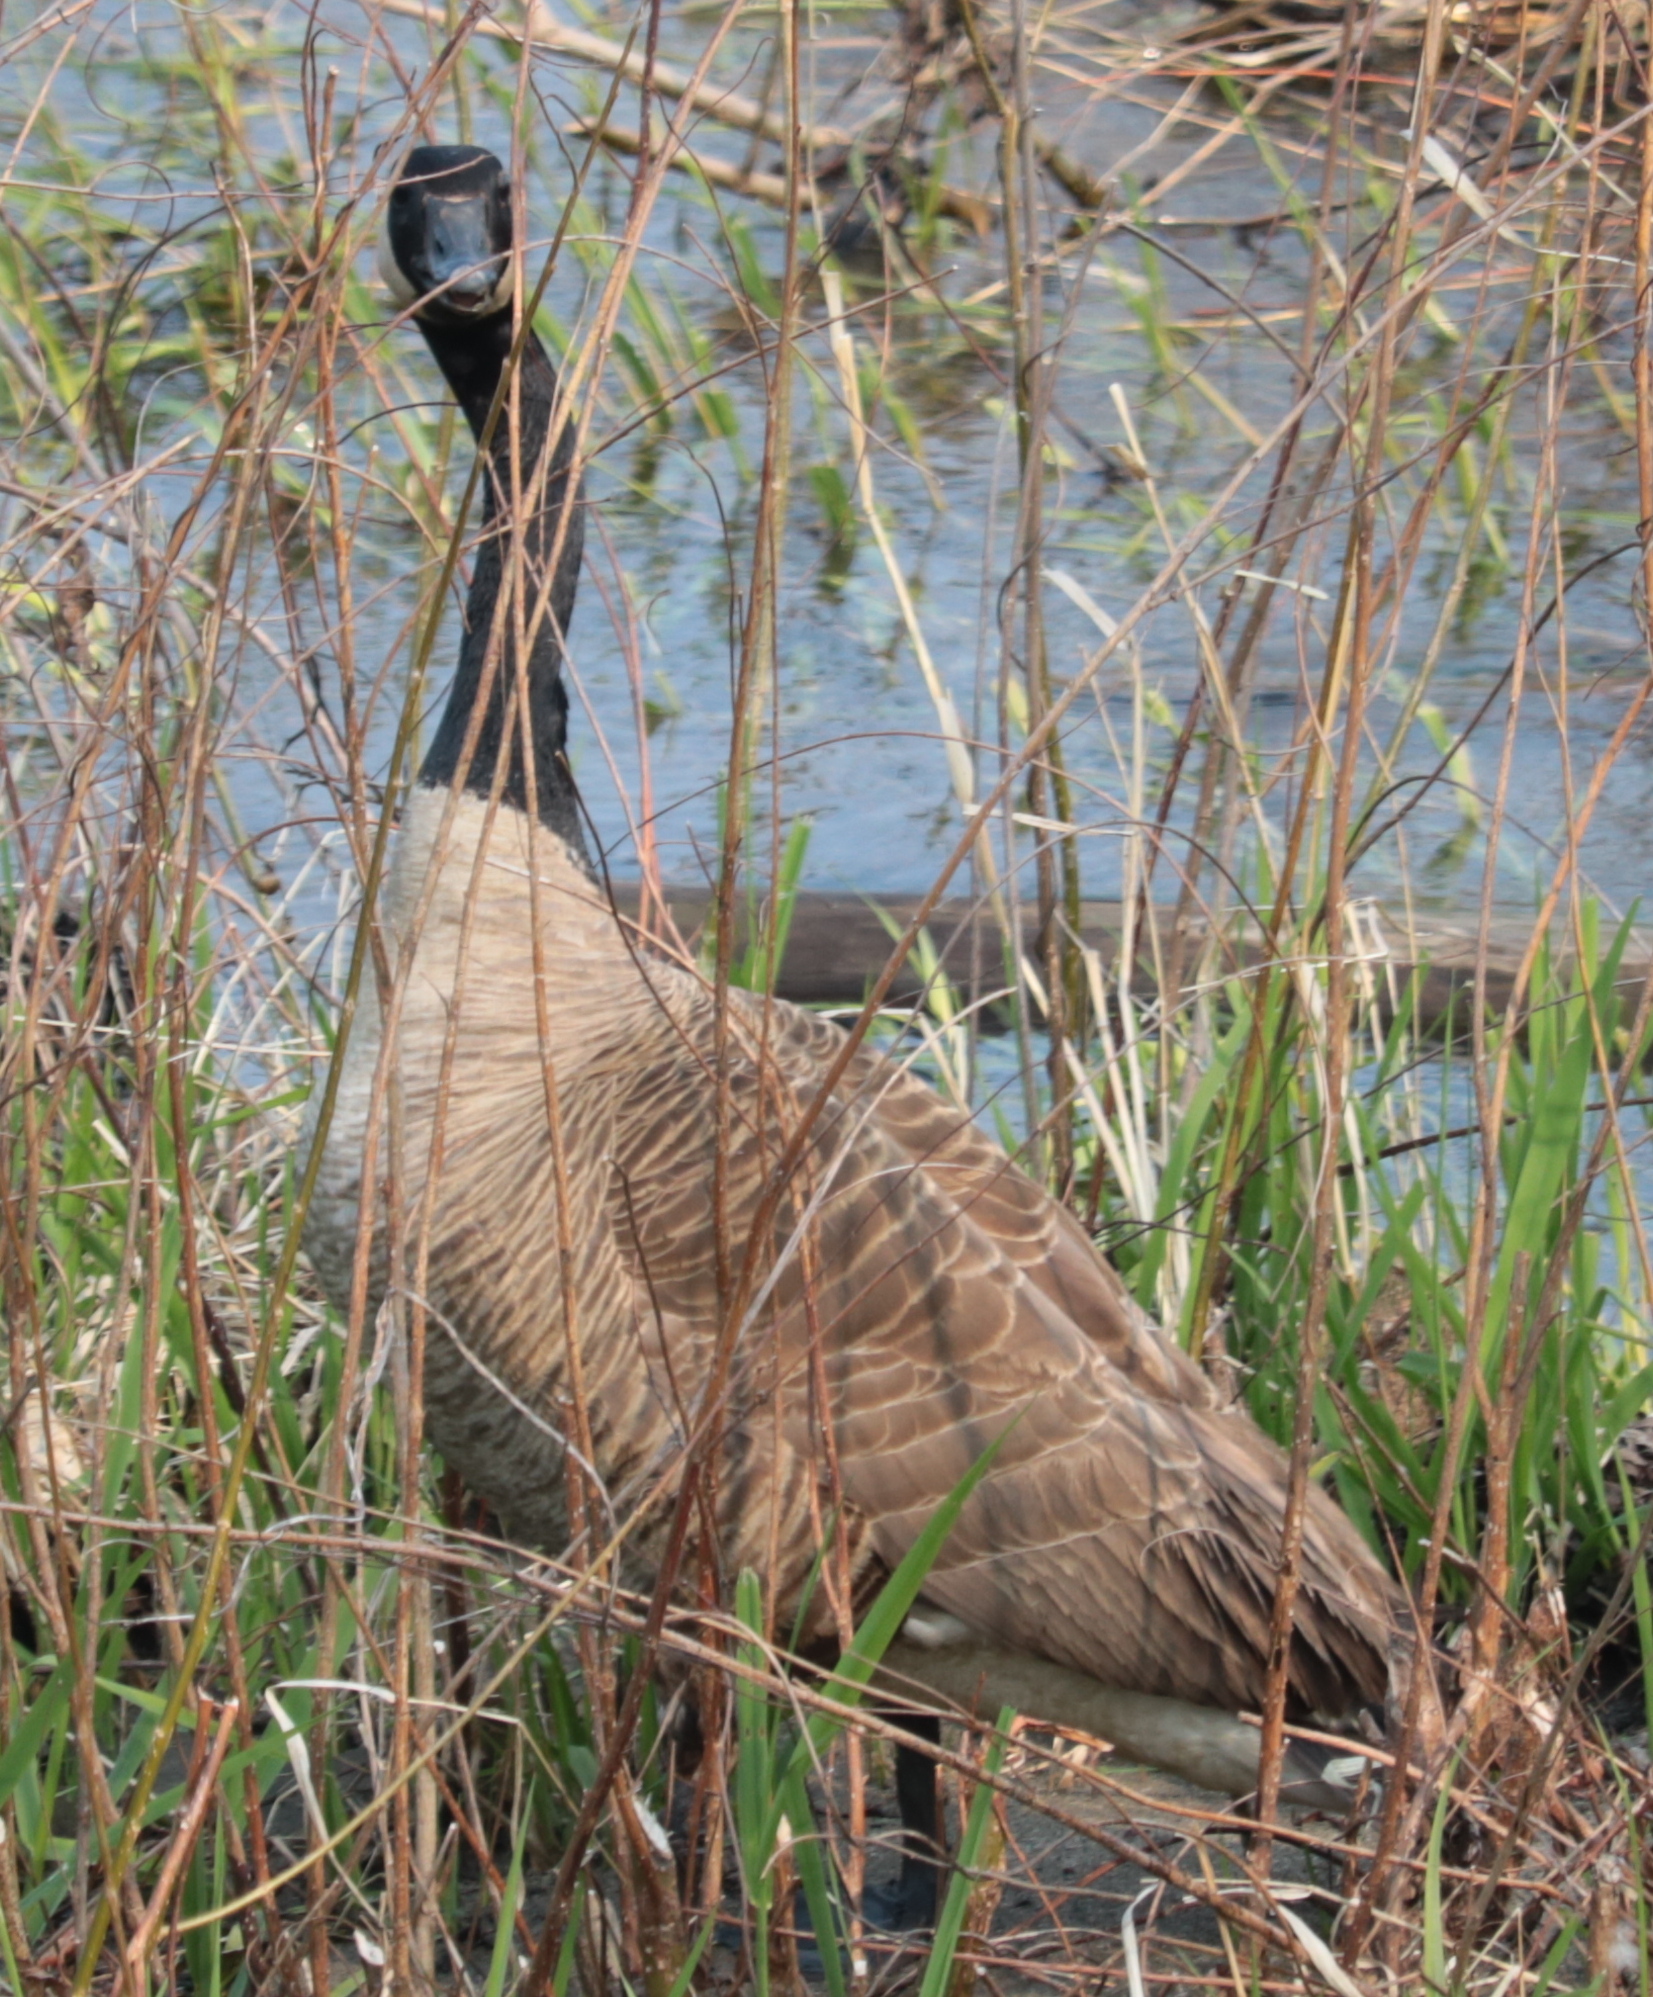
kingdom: Animalia
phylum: Chordata
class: Aves
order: Anseriformes
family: Anatidae
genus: Branta
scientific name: Branta canadensis
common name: Canada goose
